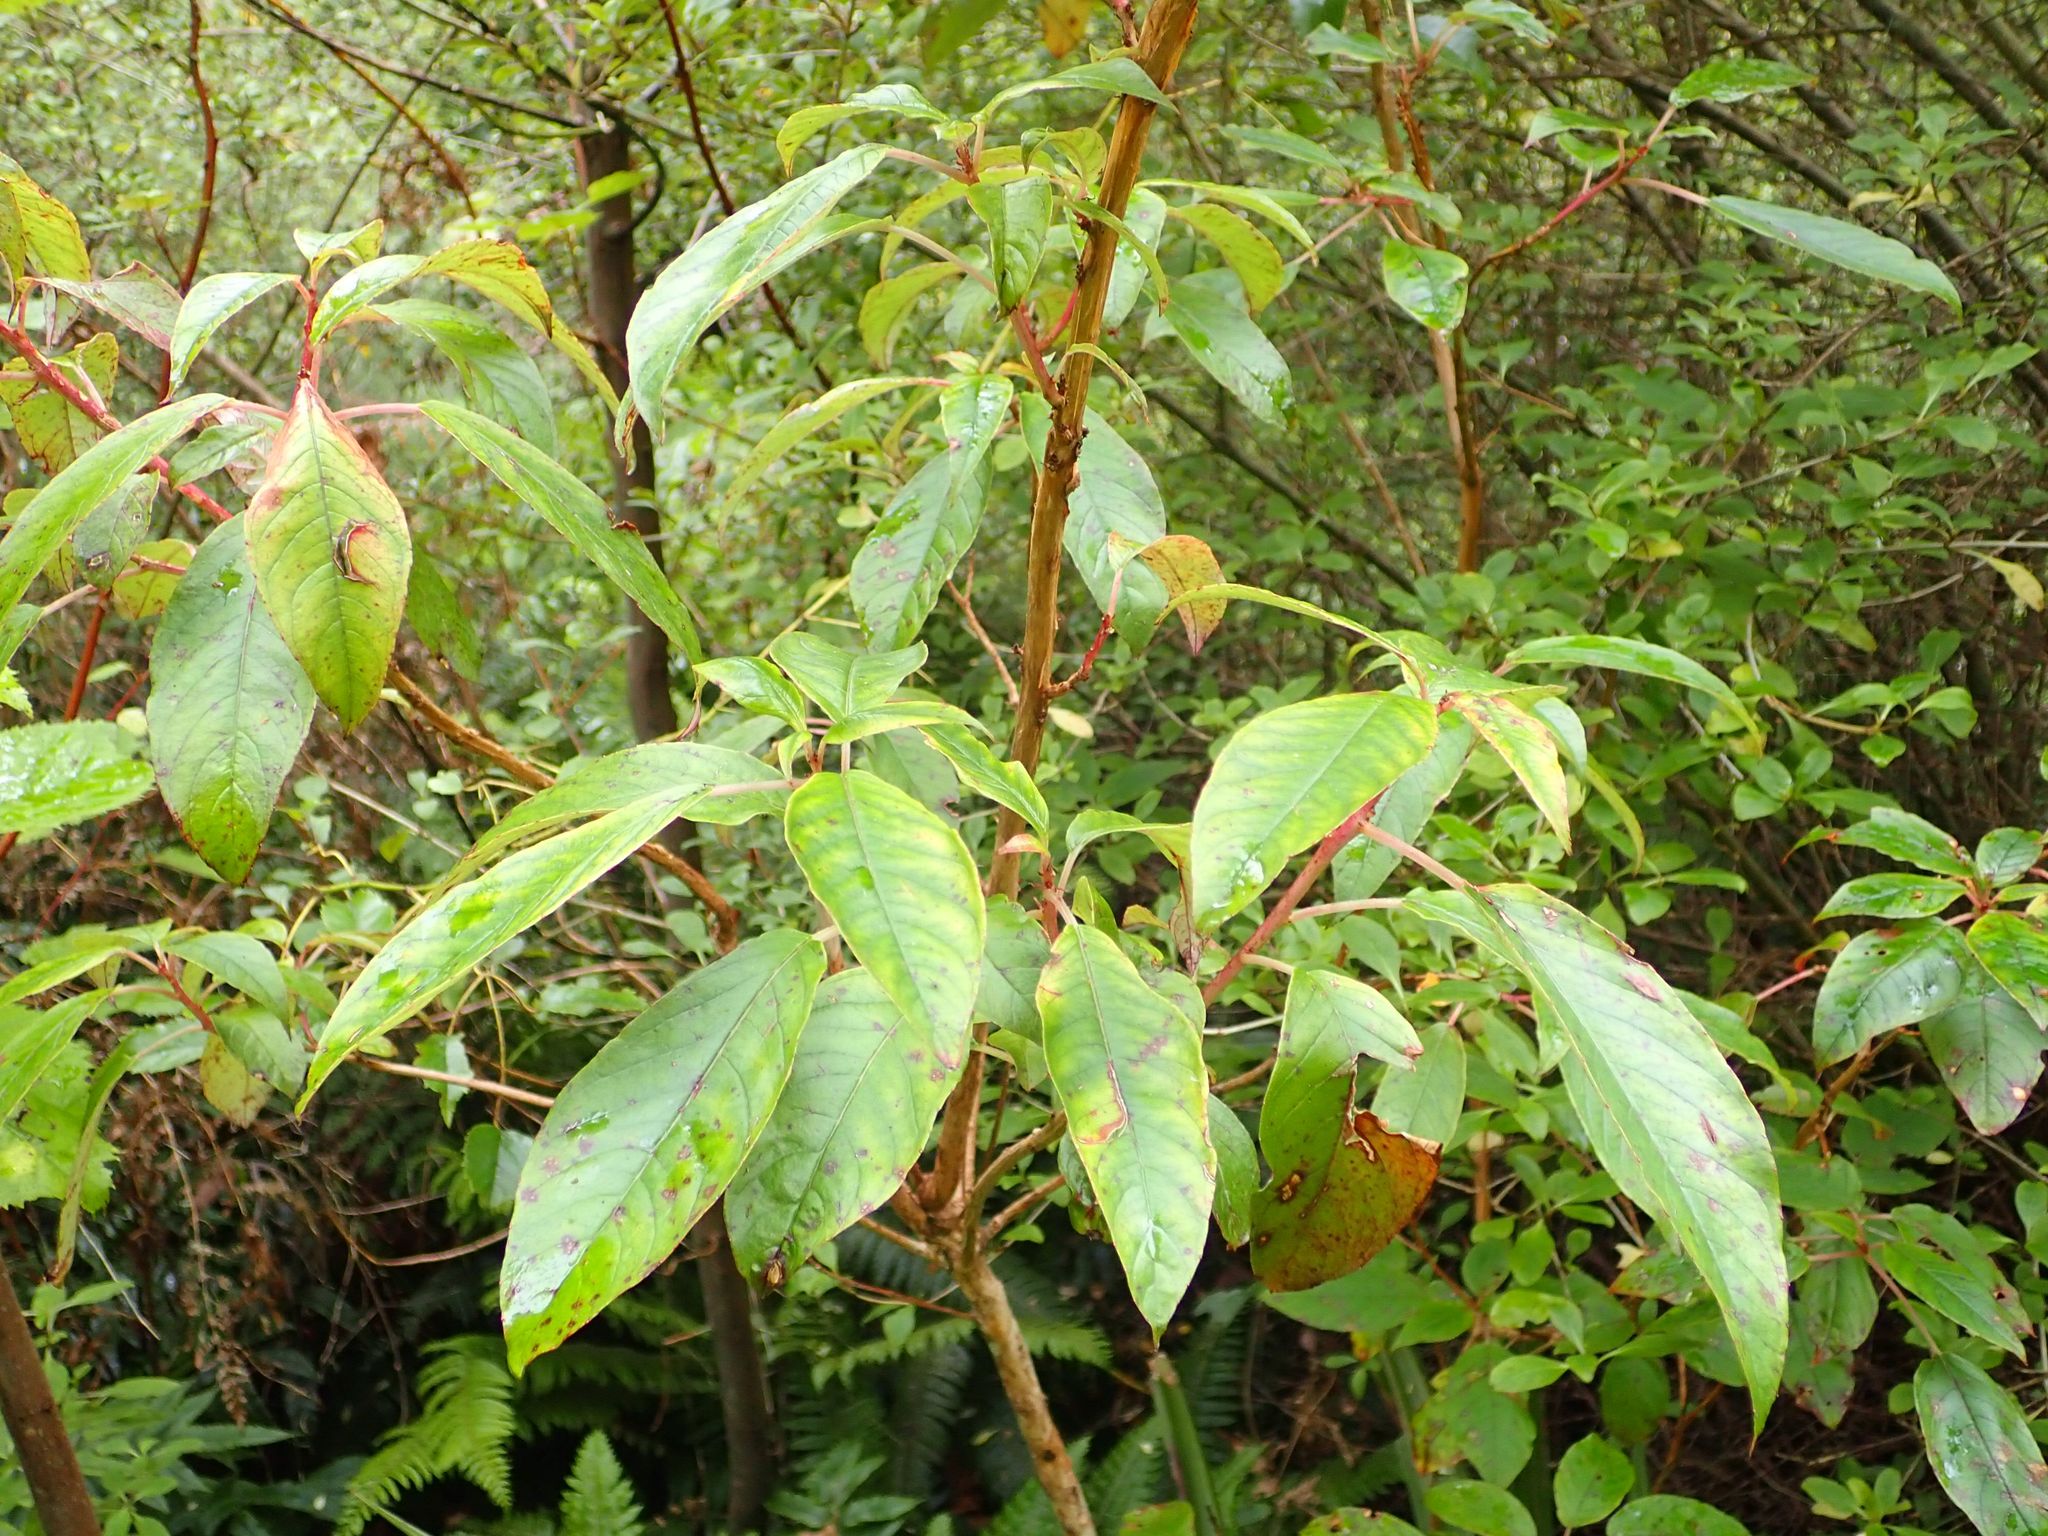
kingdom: Plantae
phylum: Tracheophyta
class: Magnoliopsida
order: Myrtales
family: Onagraceae
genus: Fuchsia
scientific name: Fuchsia excorticata
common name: Tree fuchsia
